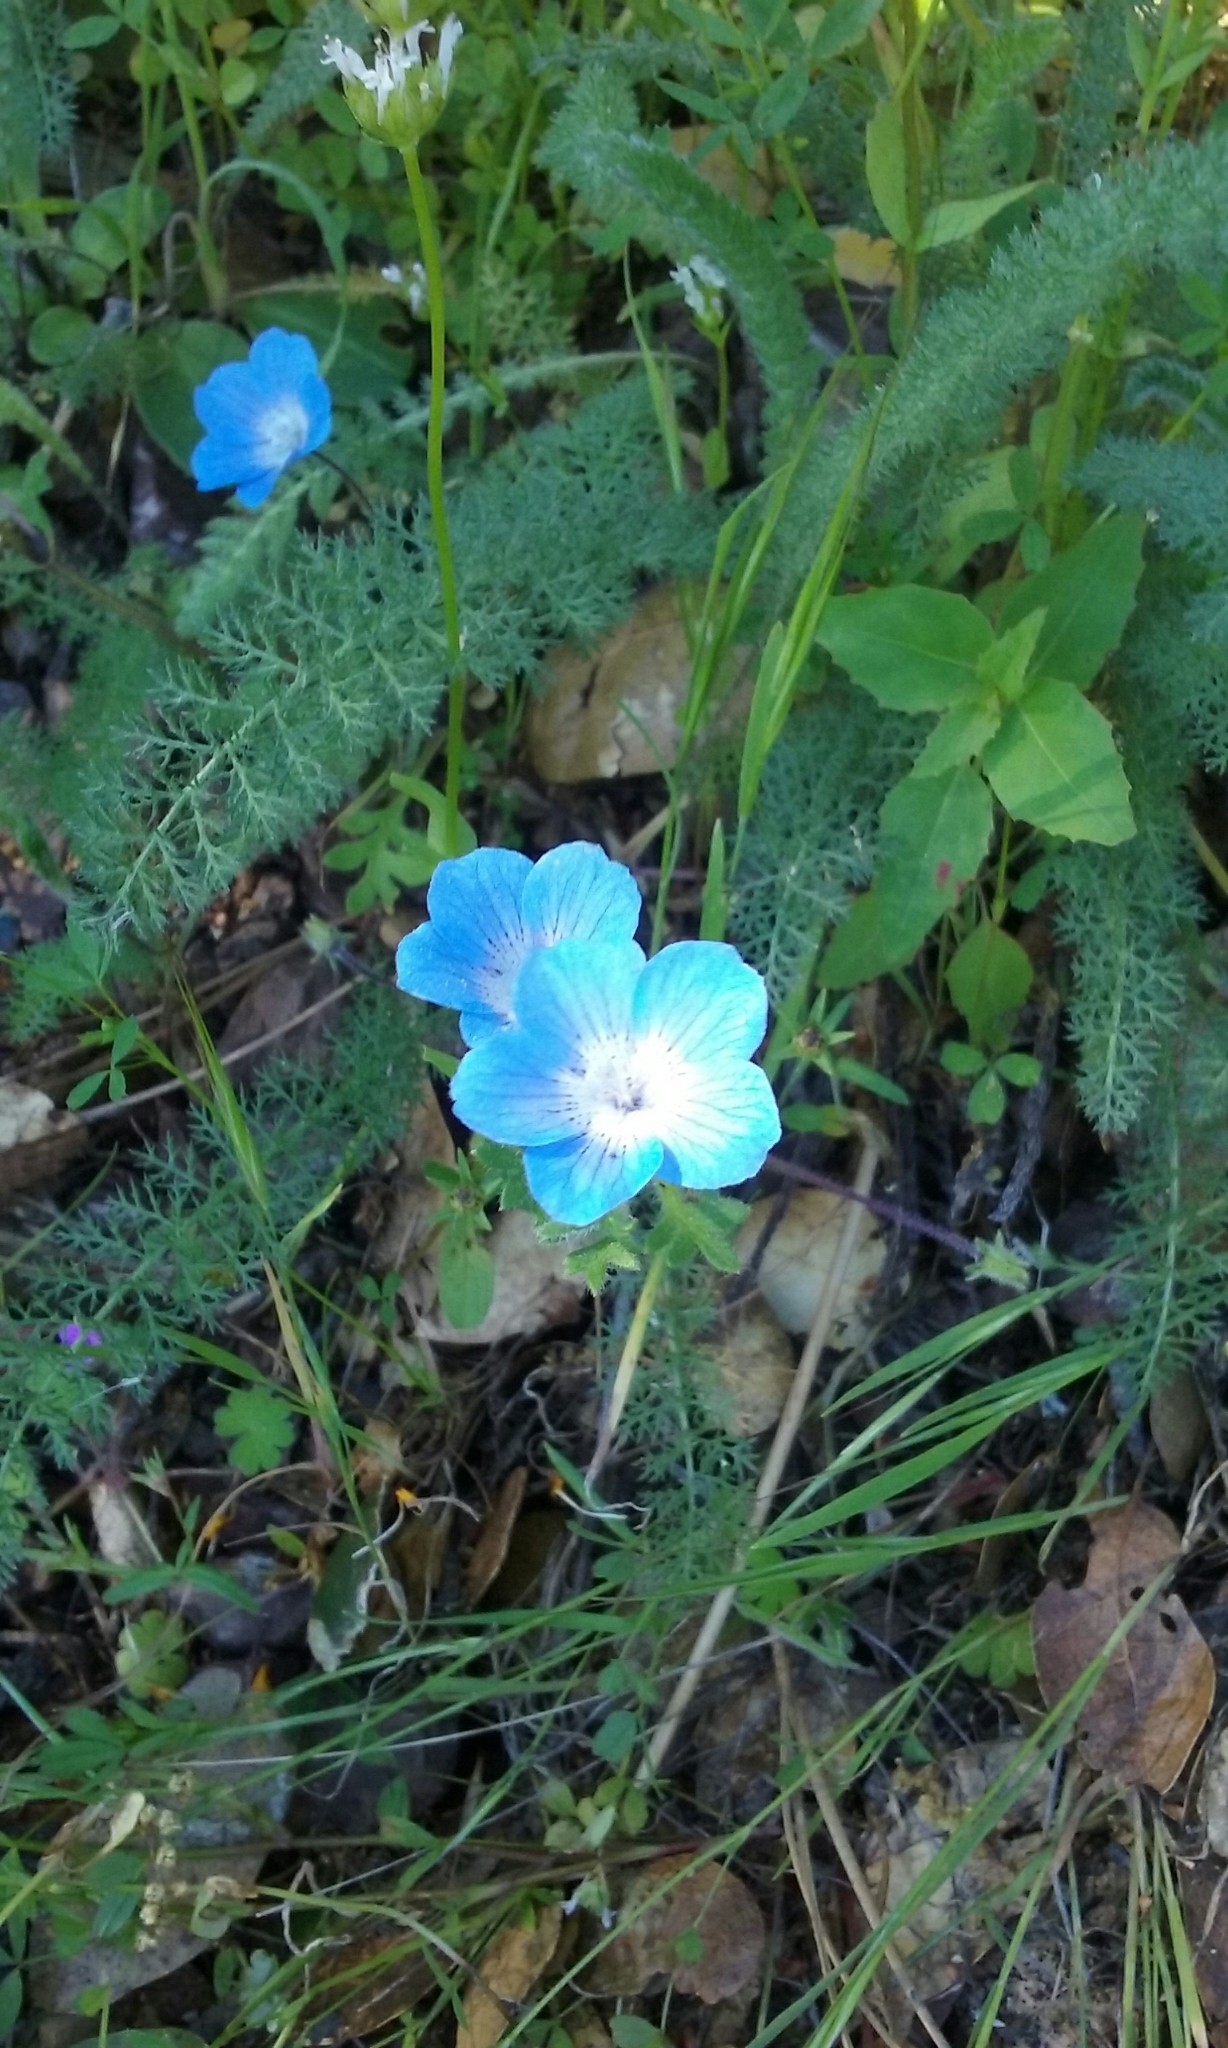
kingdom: Plantae
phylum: Tracheophyta
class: Magnoliopsida
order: Boraginales
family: Hydrophyllaceae
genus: Nemophila
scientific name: Nemophila menziesii
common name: Baby's-blue-eyes
